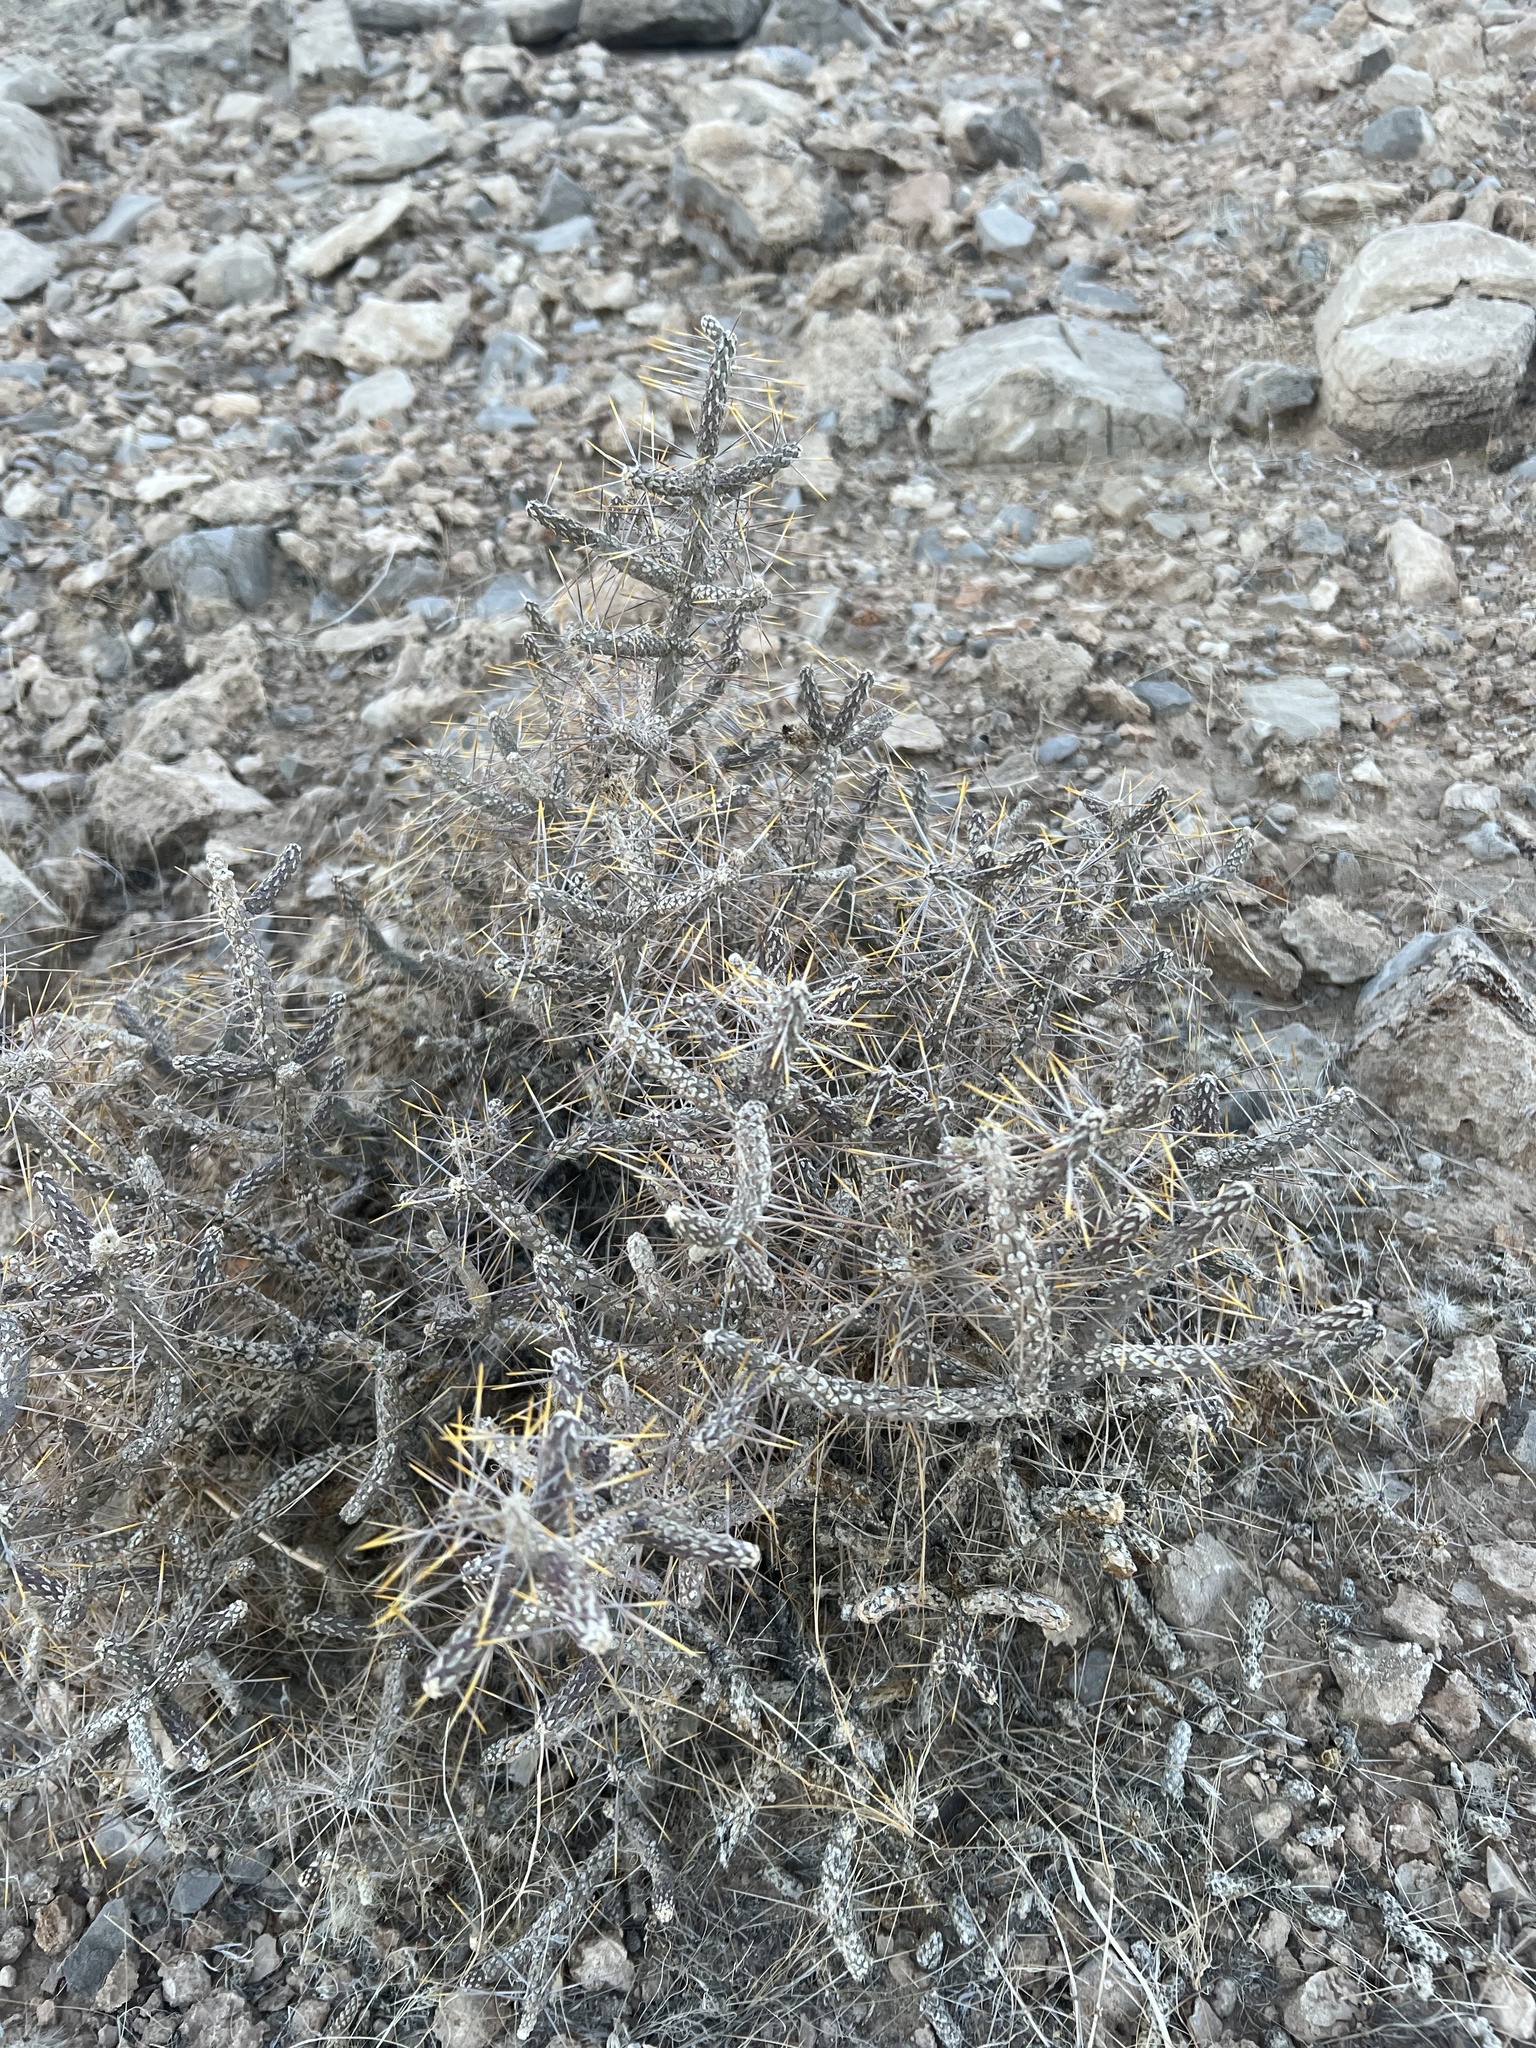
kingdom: Plantae
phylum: Tracheophyta
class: Magnoliopsida
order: Caryophyllales
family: Cactaceae
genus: Cylindropuntia
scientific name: Cylindropuntia ramosissima
